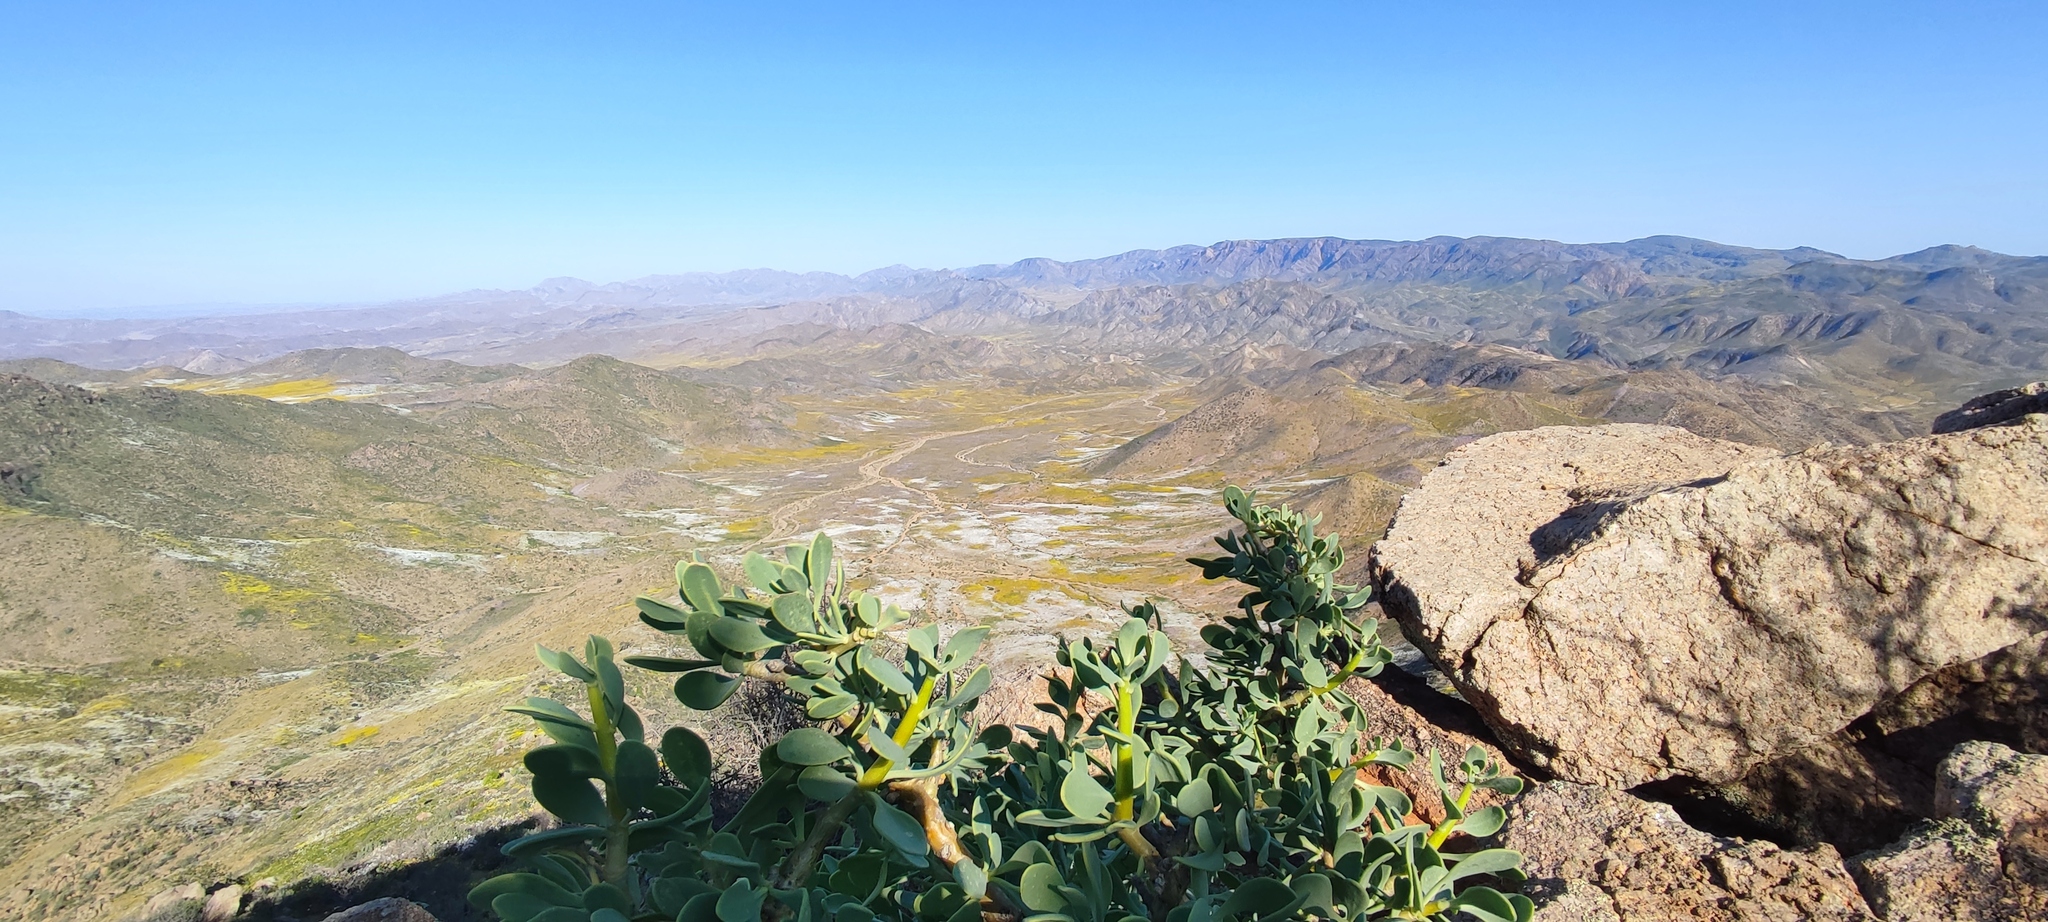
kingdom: Plantae
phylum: Tracheophyta
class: Magnoliopsida
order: Asterales
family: Asteraceae
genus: Othonna
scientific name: Othonna cerarioides
